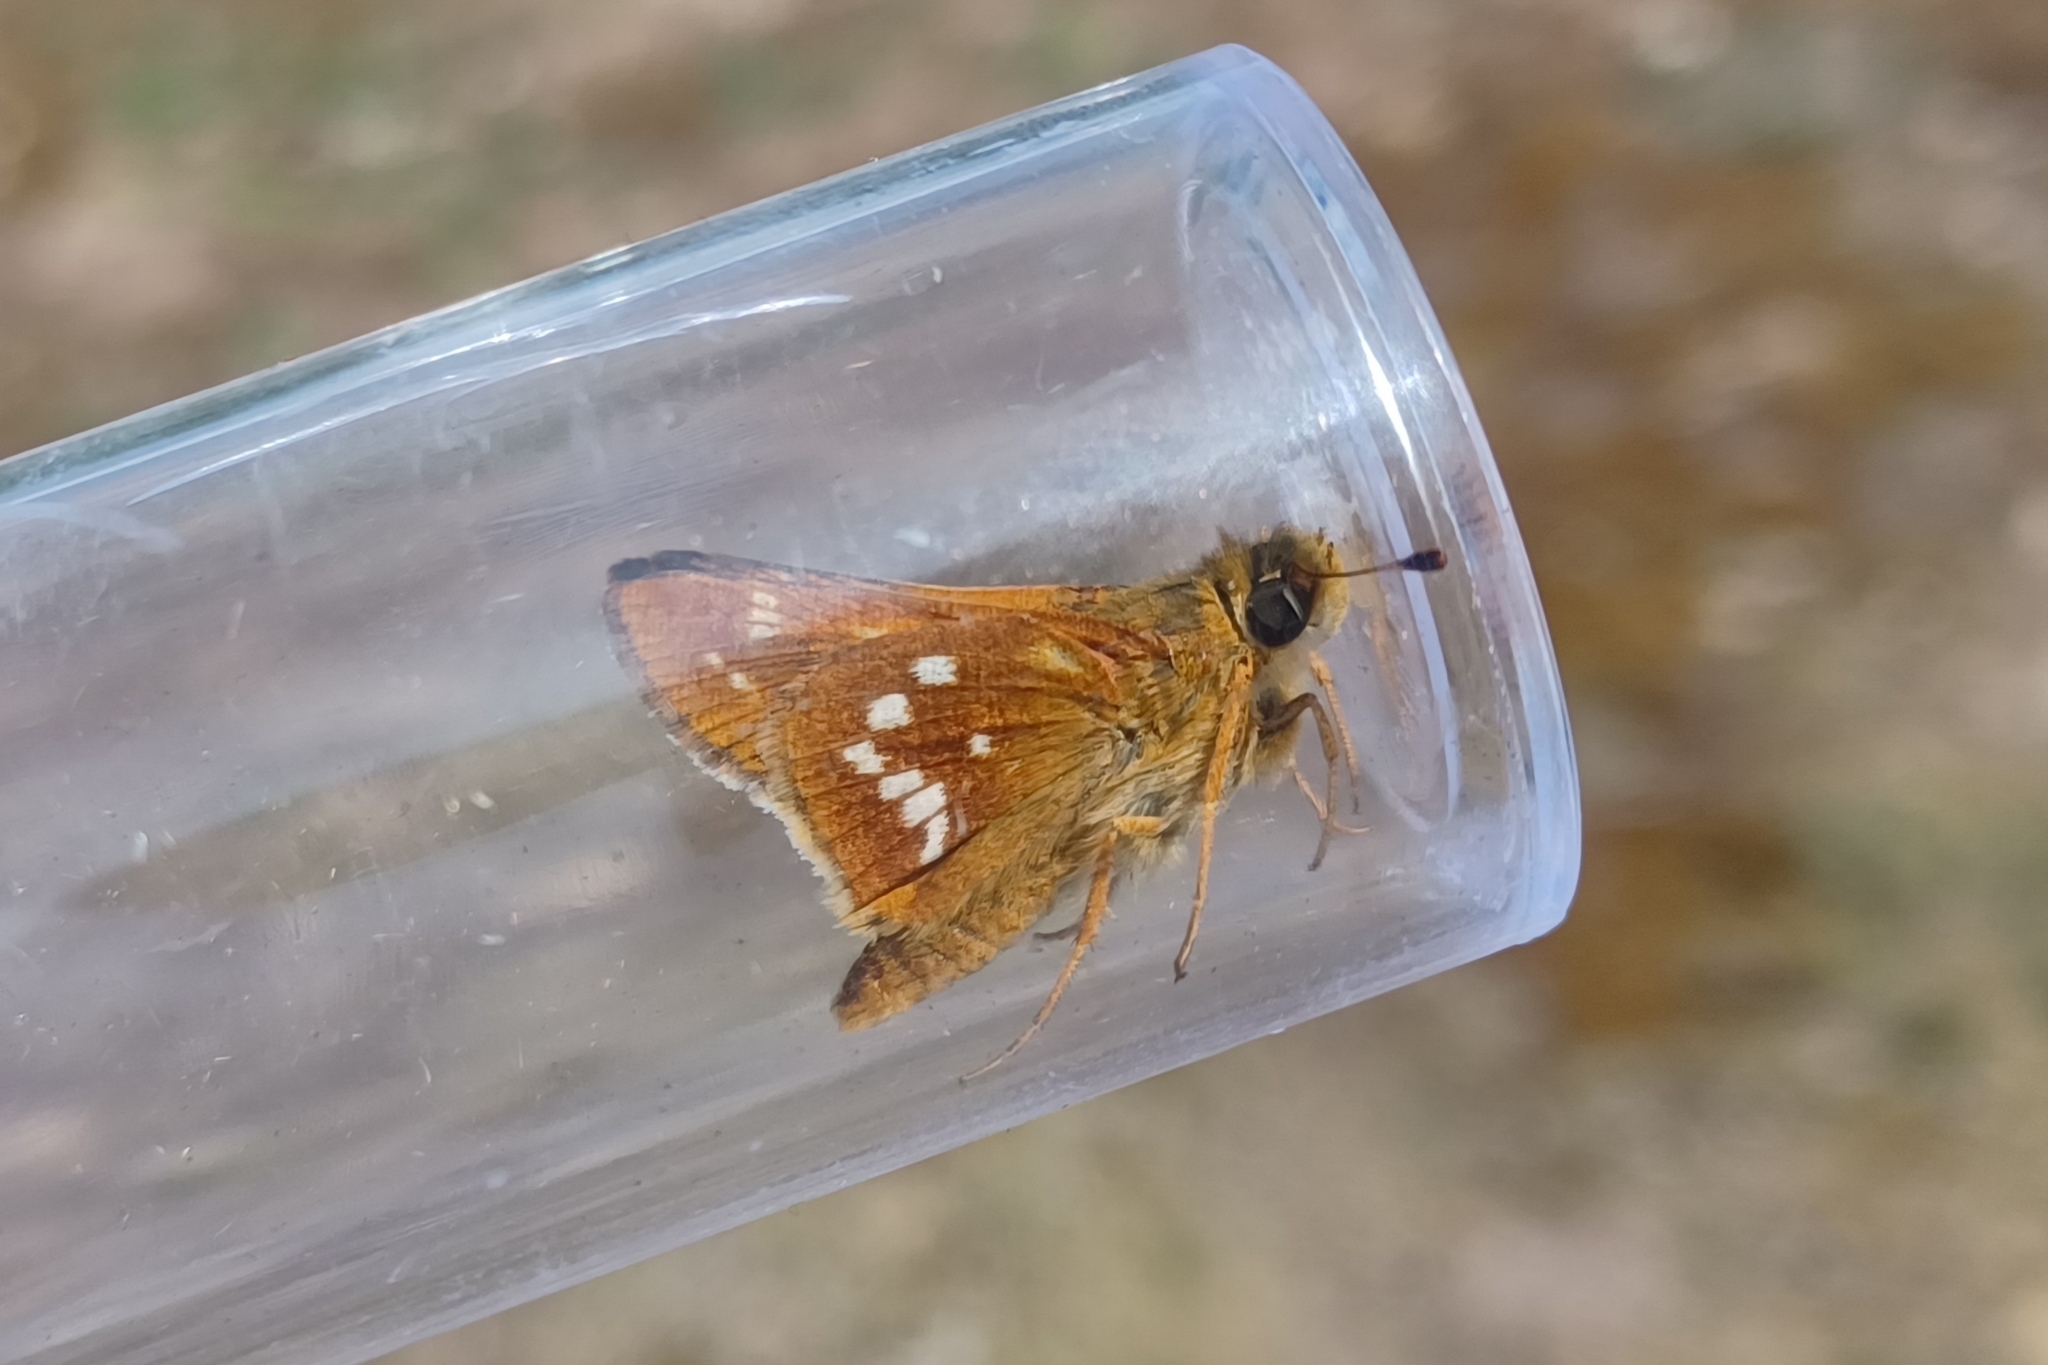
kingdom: Animalia
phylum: Arthropoda
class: Insecta
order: Lepidoptera
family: Hesperiidae
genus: Hesperia
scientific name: Hesperia leonardus
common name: Leonard's skipper
